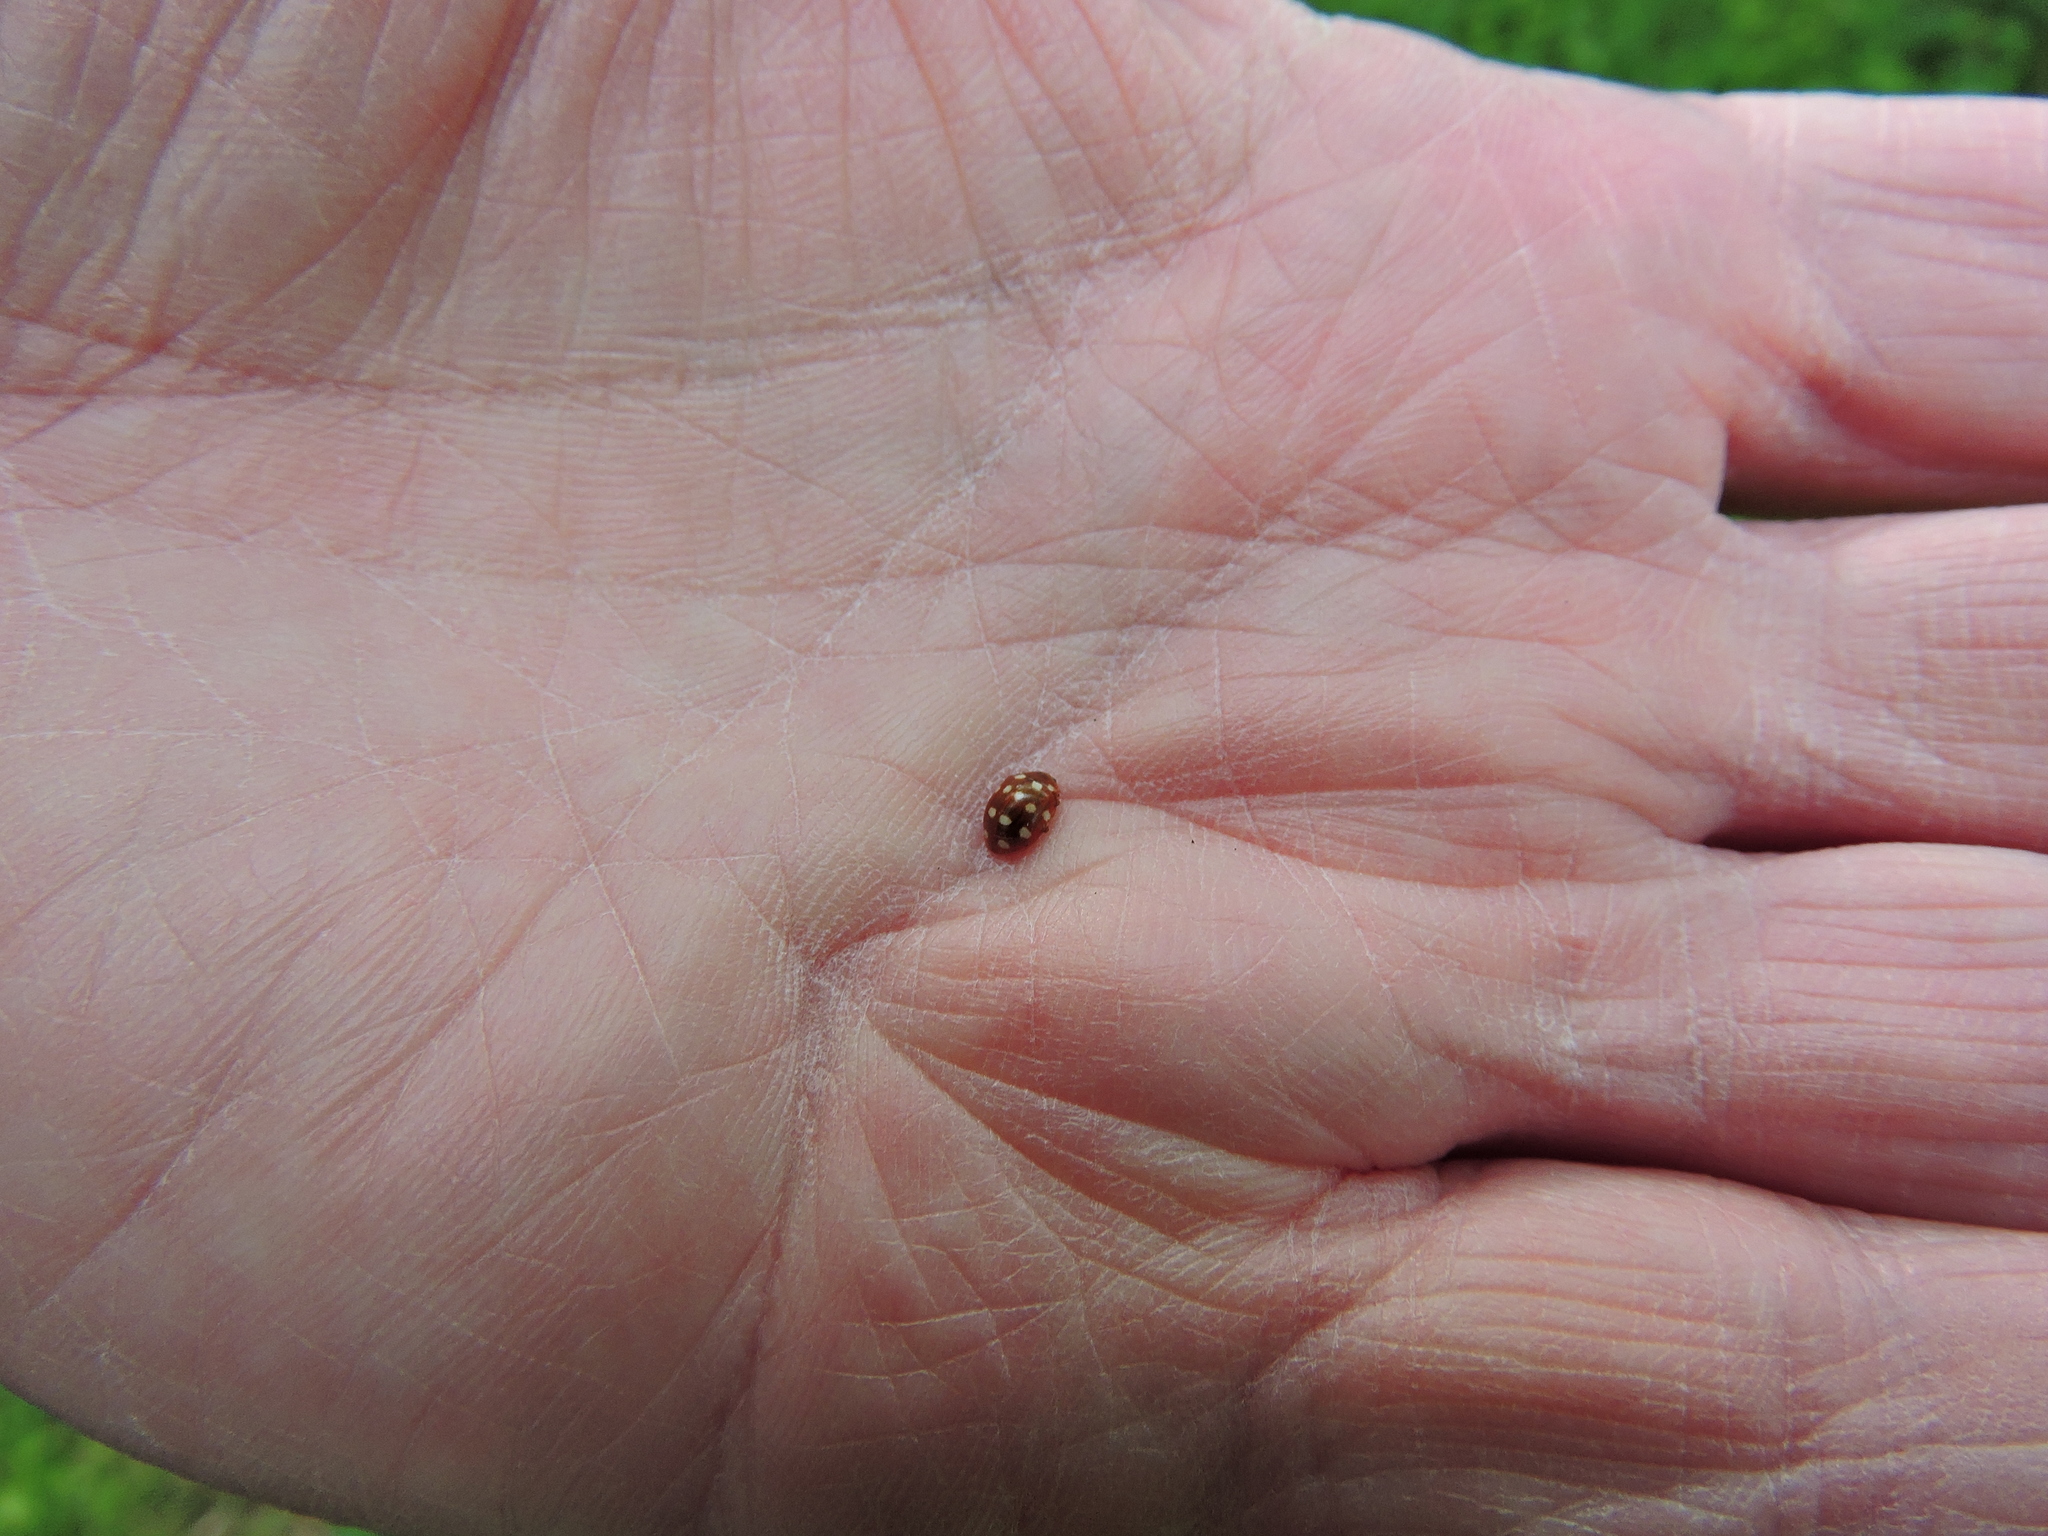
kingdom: Animalia
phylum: Arthropoda
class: Insecta
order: Coleoptera
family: Coccinellidae
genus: Calvia
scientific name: Calvia quatuordecimguttata
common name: Cream-spot ladybird
